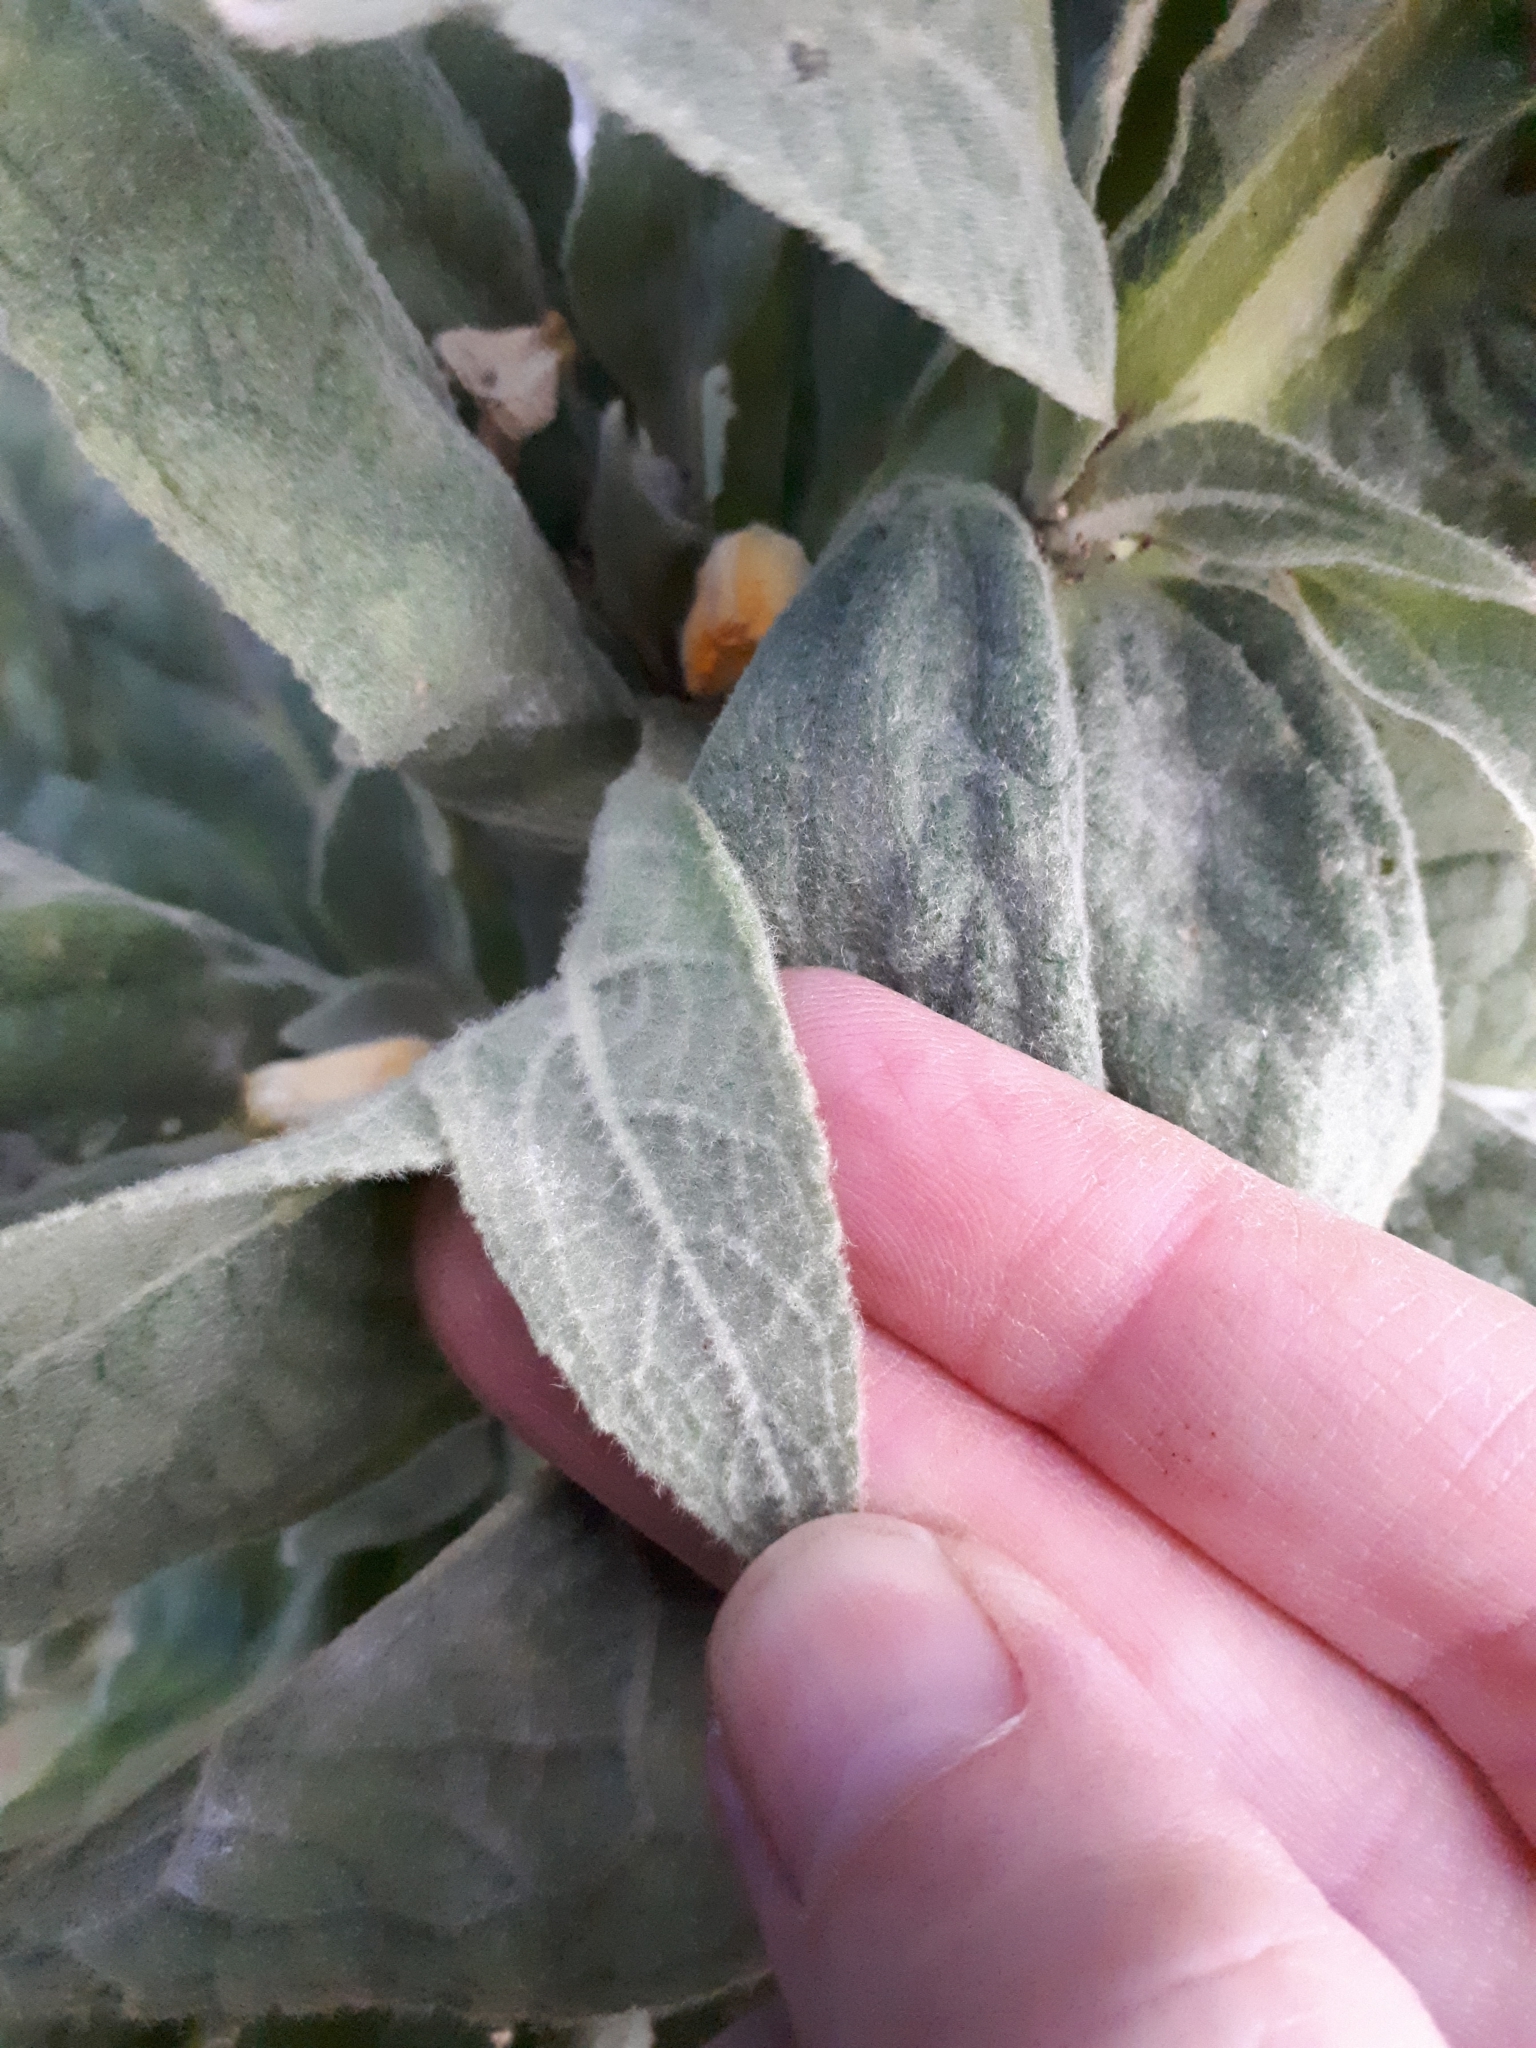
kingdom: Plantae
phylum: Tracheophyta
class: Magnoliopsida
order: Lamiales
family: Scrophulariaceae
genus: Verbascum
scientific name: Verbascum thapsus
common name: Common mullein
